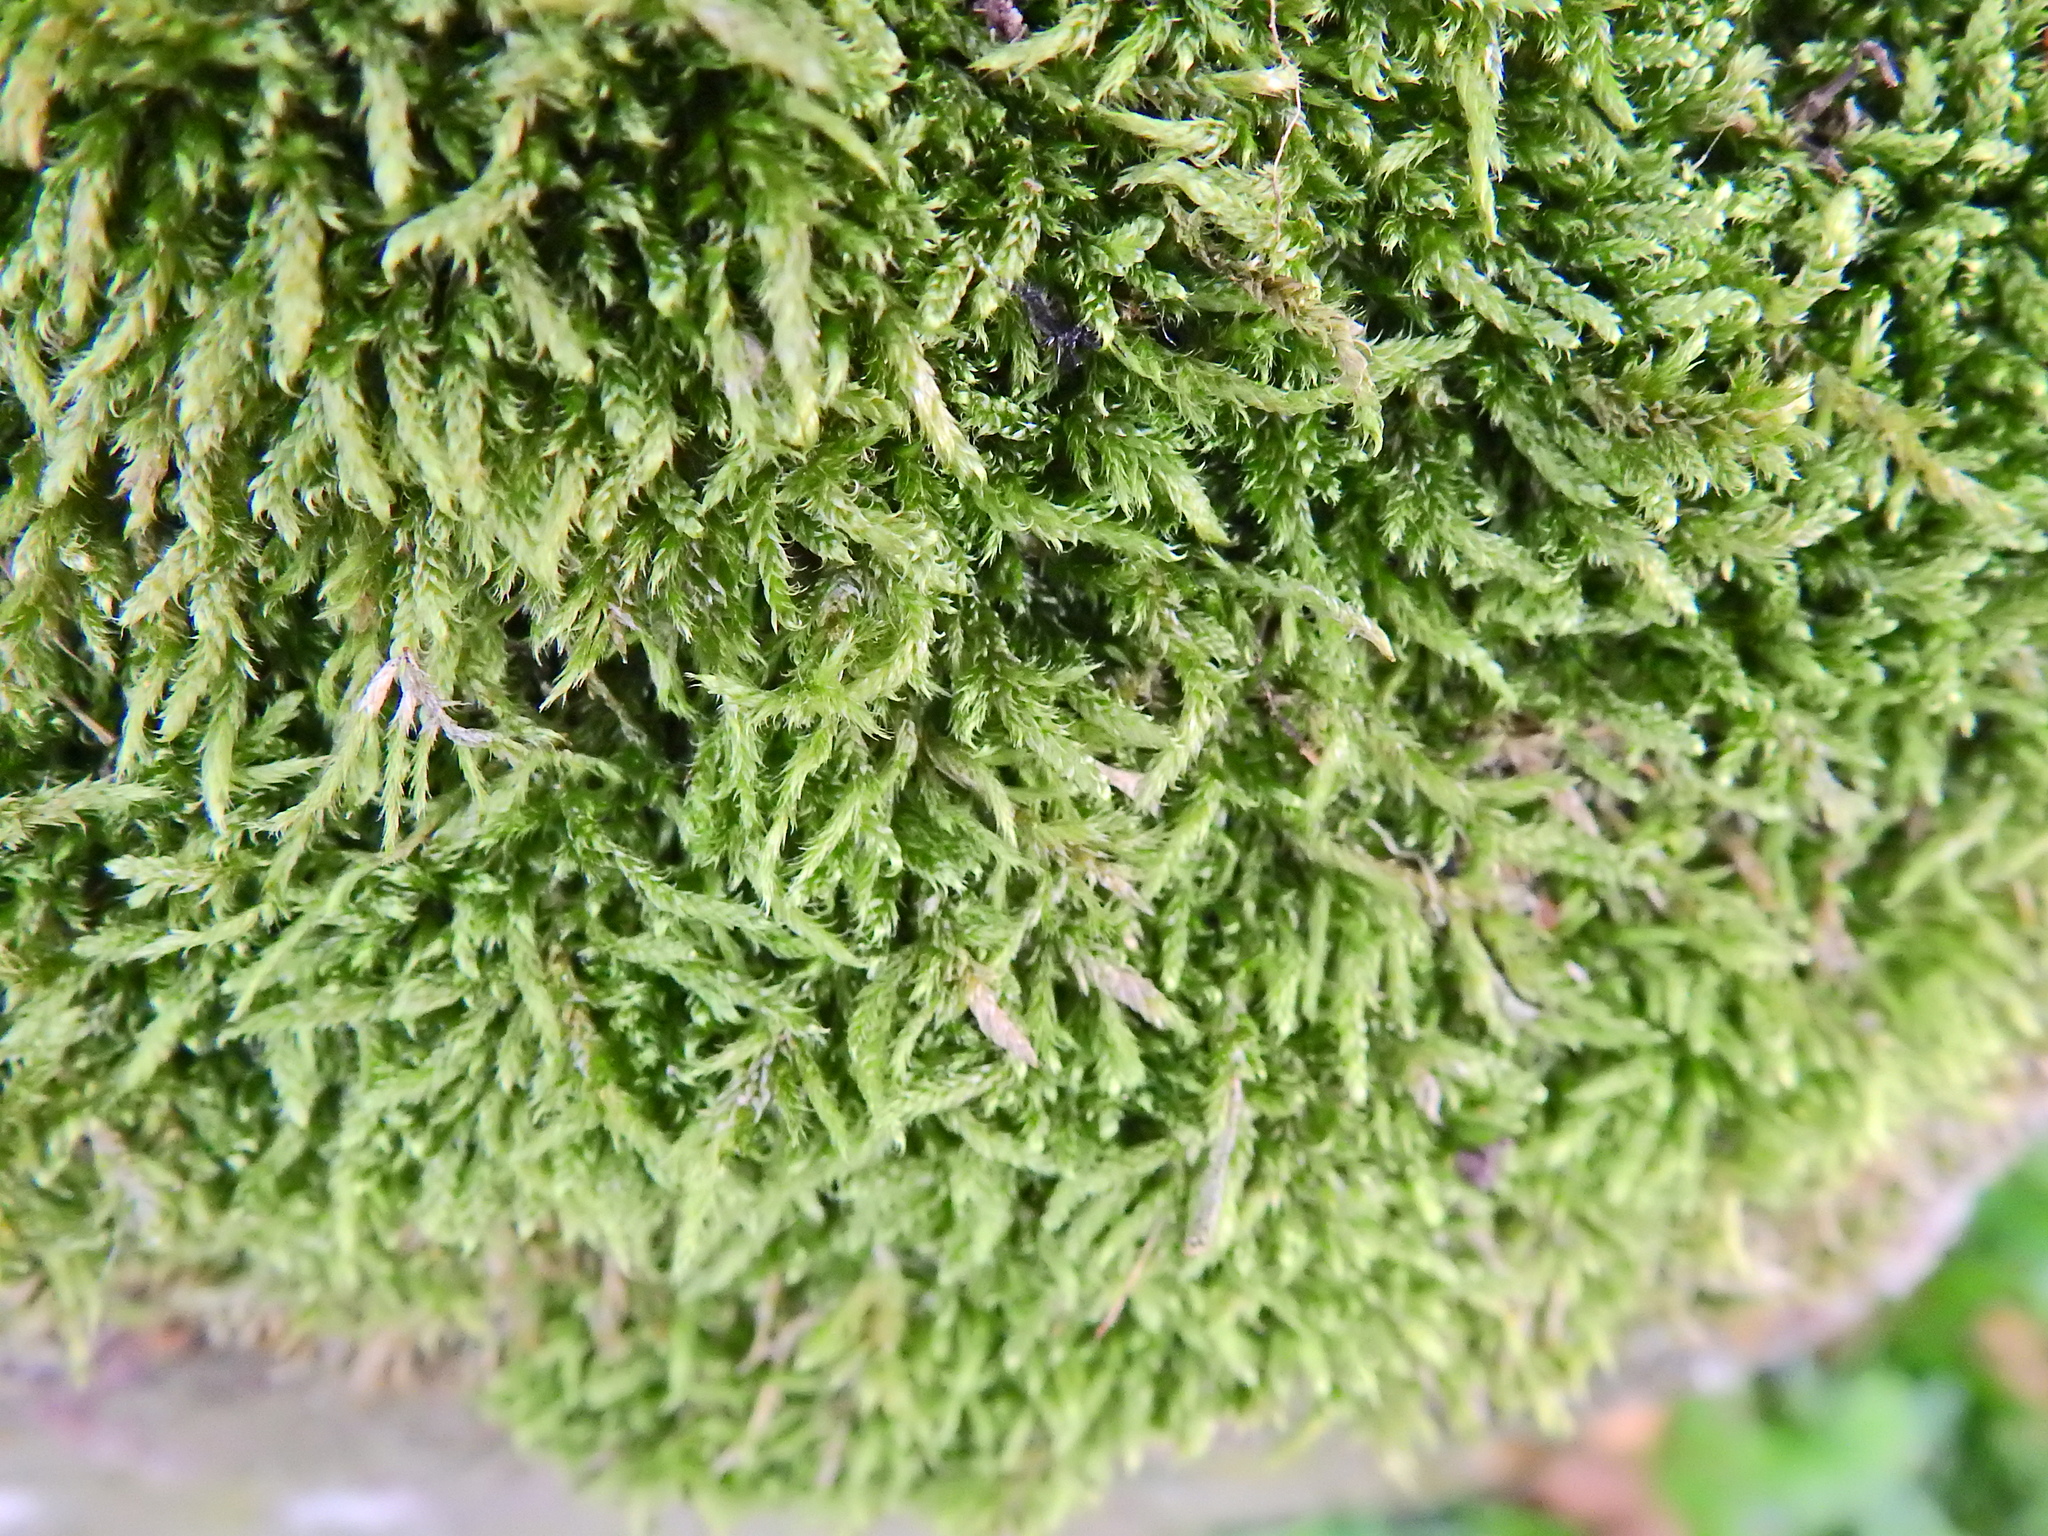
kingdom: Plantae
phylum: Bryophyta
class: Bryopsida
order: Hypnales
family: Hypnaceae
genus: Hypnum
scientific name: Hypnum cupressiforme
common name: Cypress-leaved plait-moss
